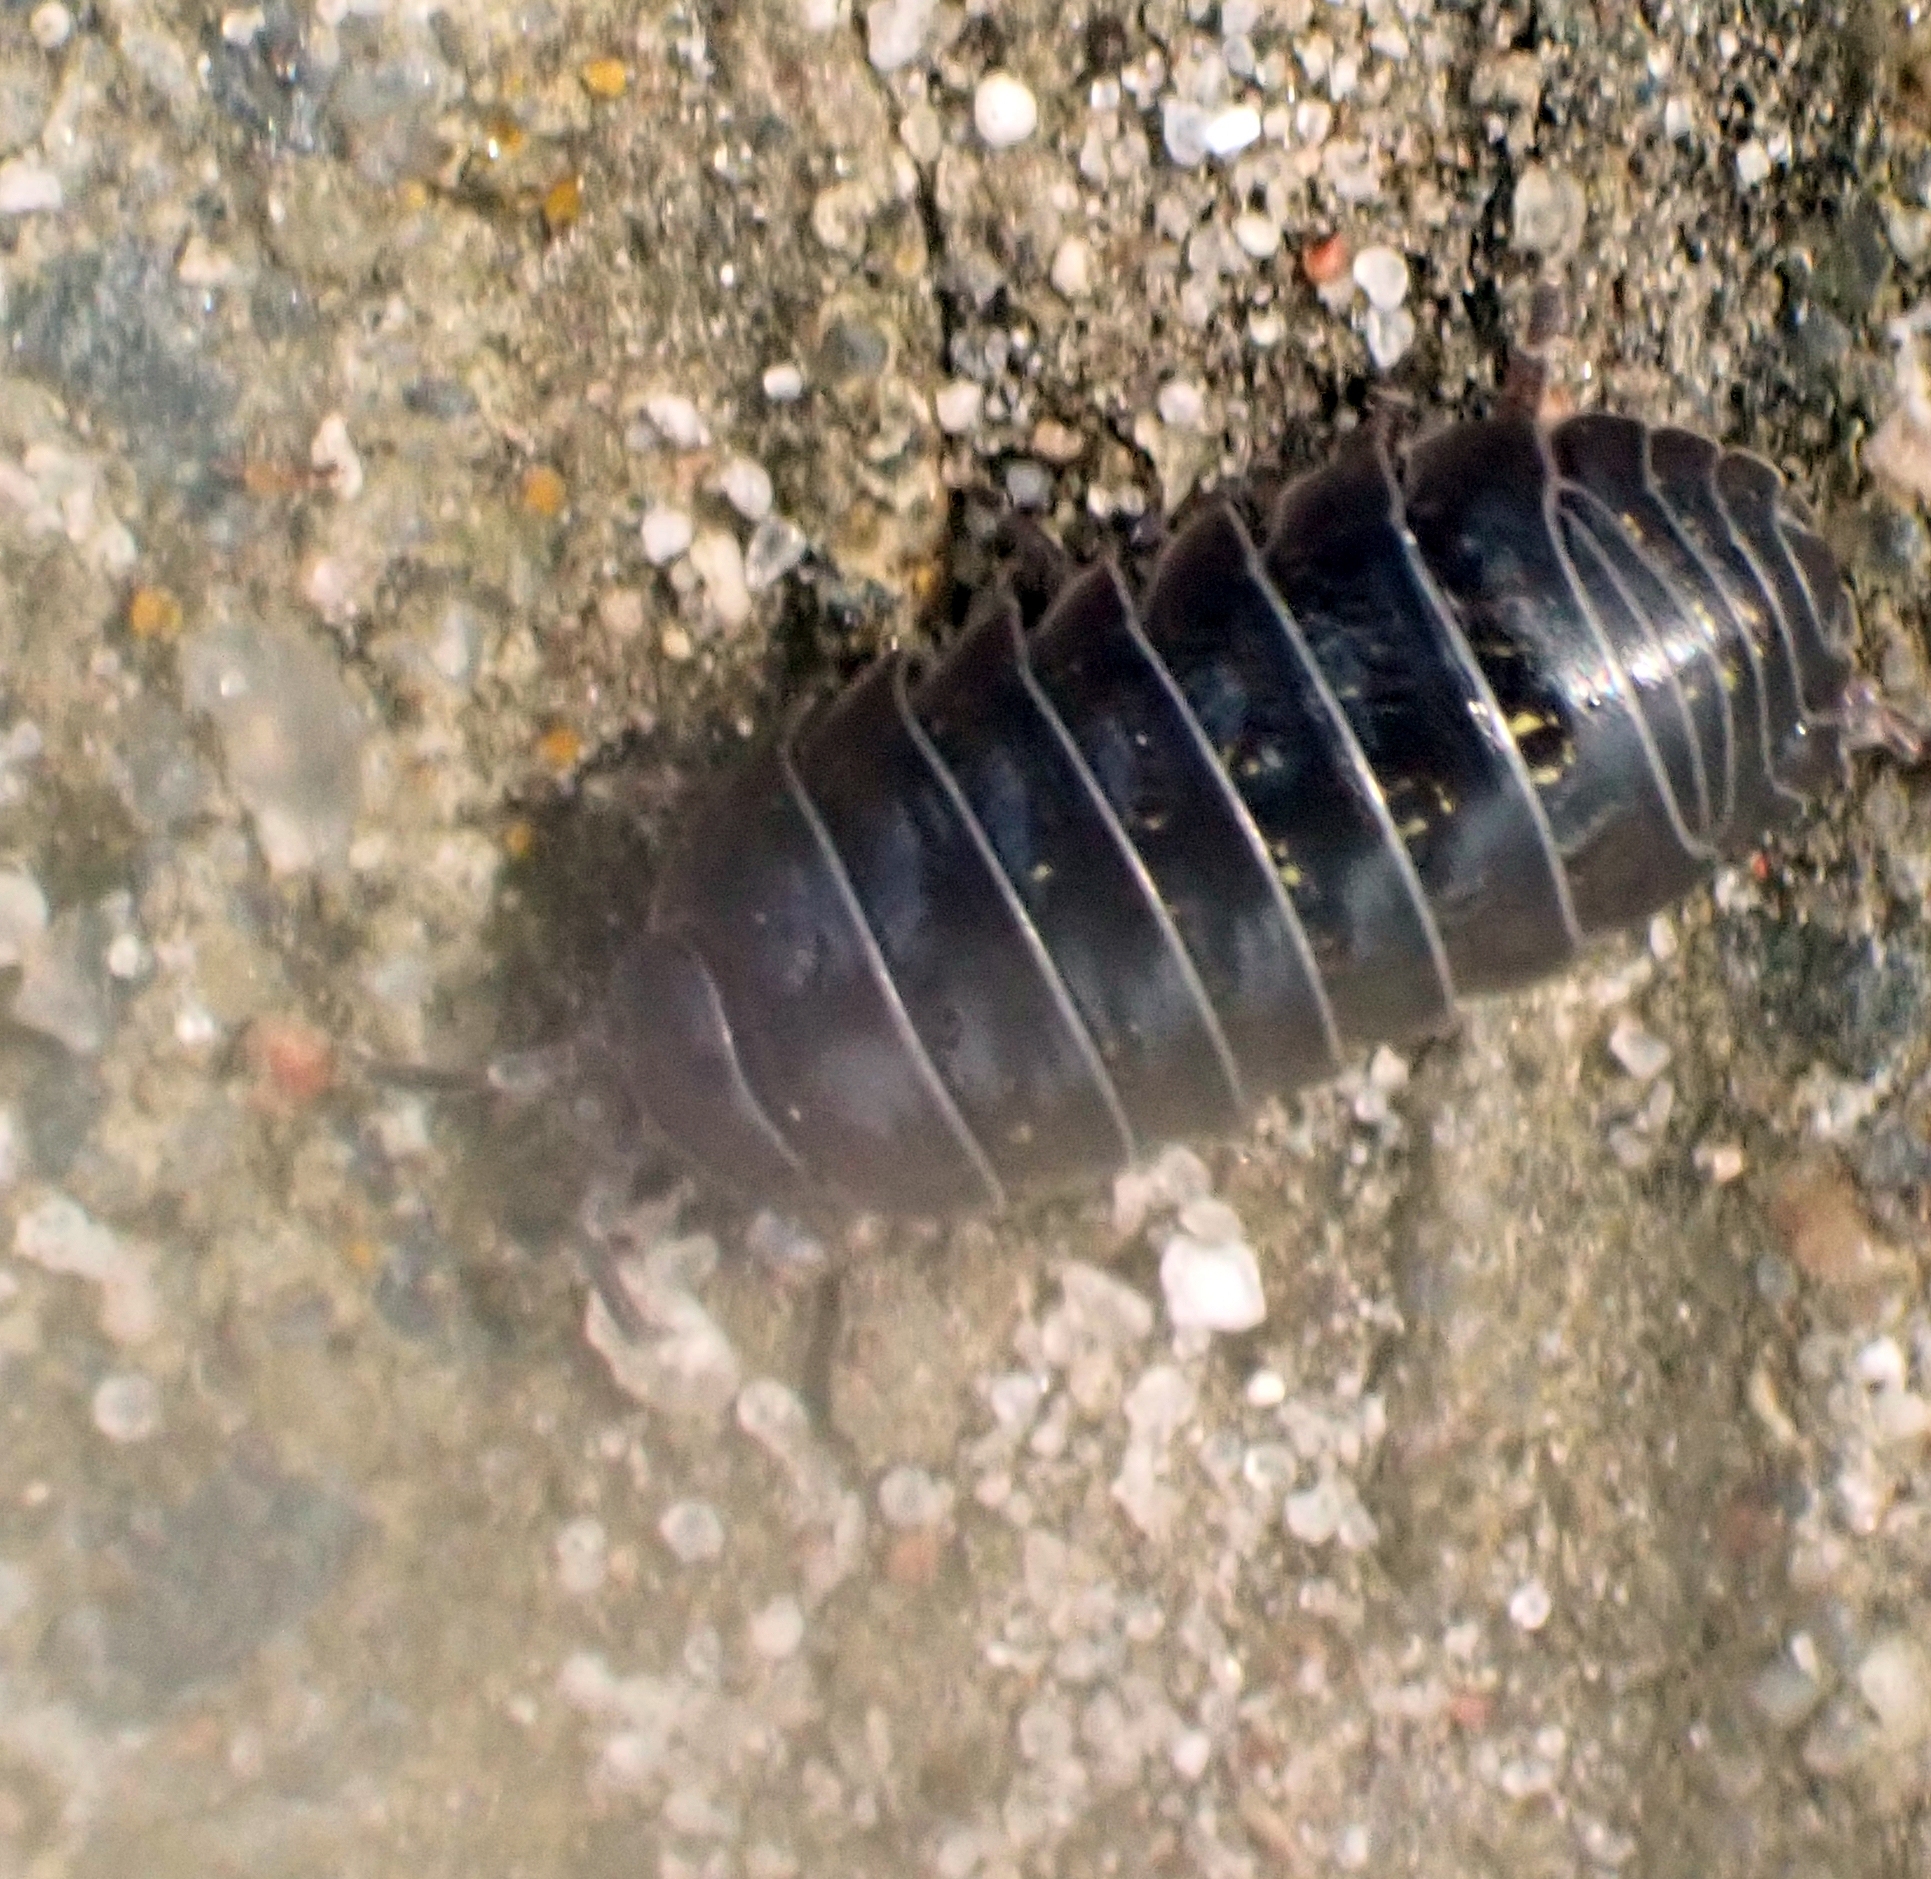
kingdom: Animalia
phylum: Arthropoda
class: Malacostraca
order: Isopoda
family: Armadillidiidae
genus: Armadillidium
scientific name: Armadillidium vulgare
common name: Common pill woodlouse
